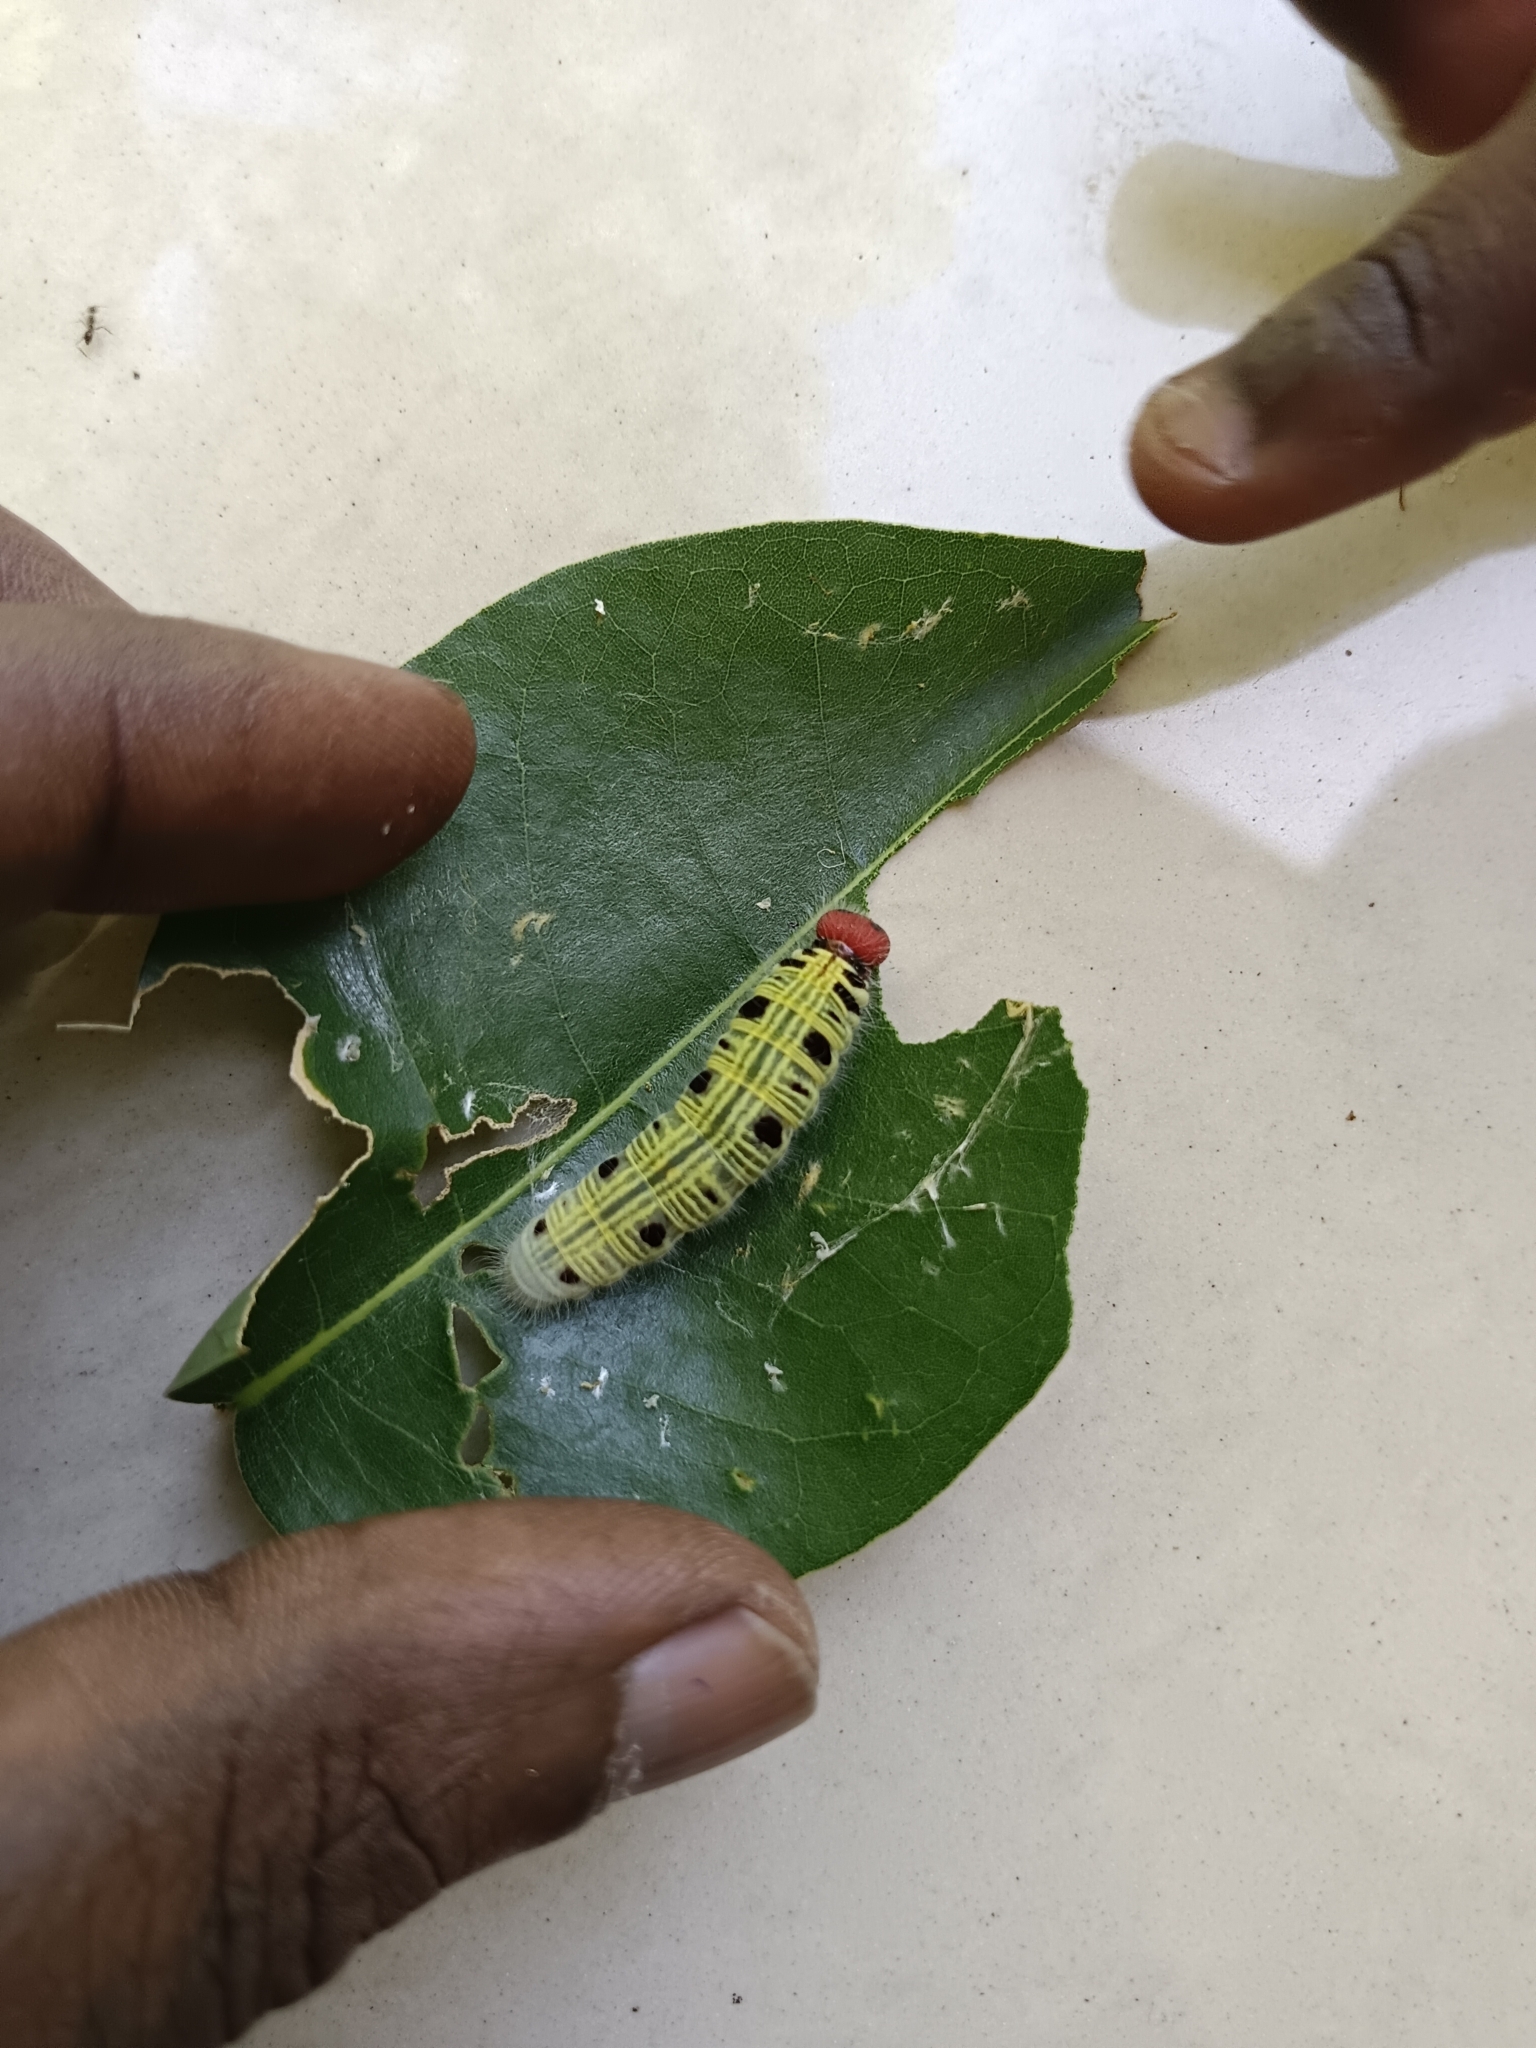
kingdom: Animalia
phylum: Arthropoda
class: Insecta
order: Lepidoptera
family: Hesperiidae
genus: Hasora
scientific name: Hasora badra
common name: Common awl
